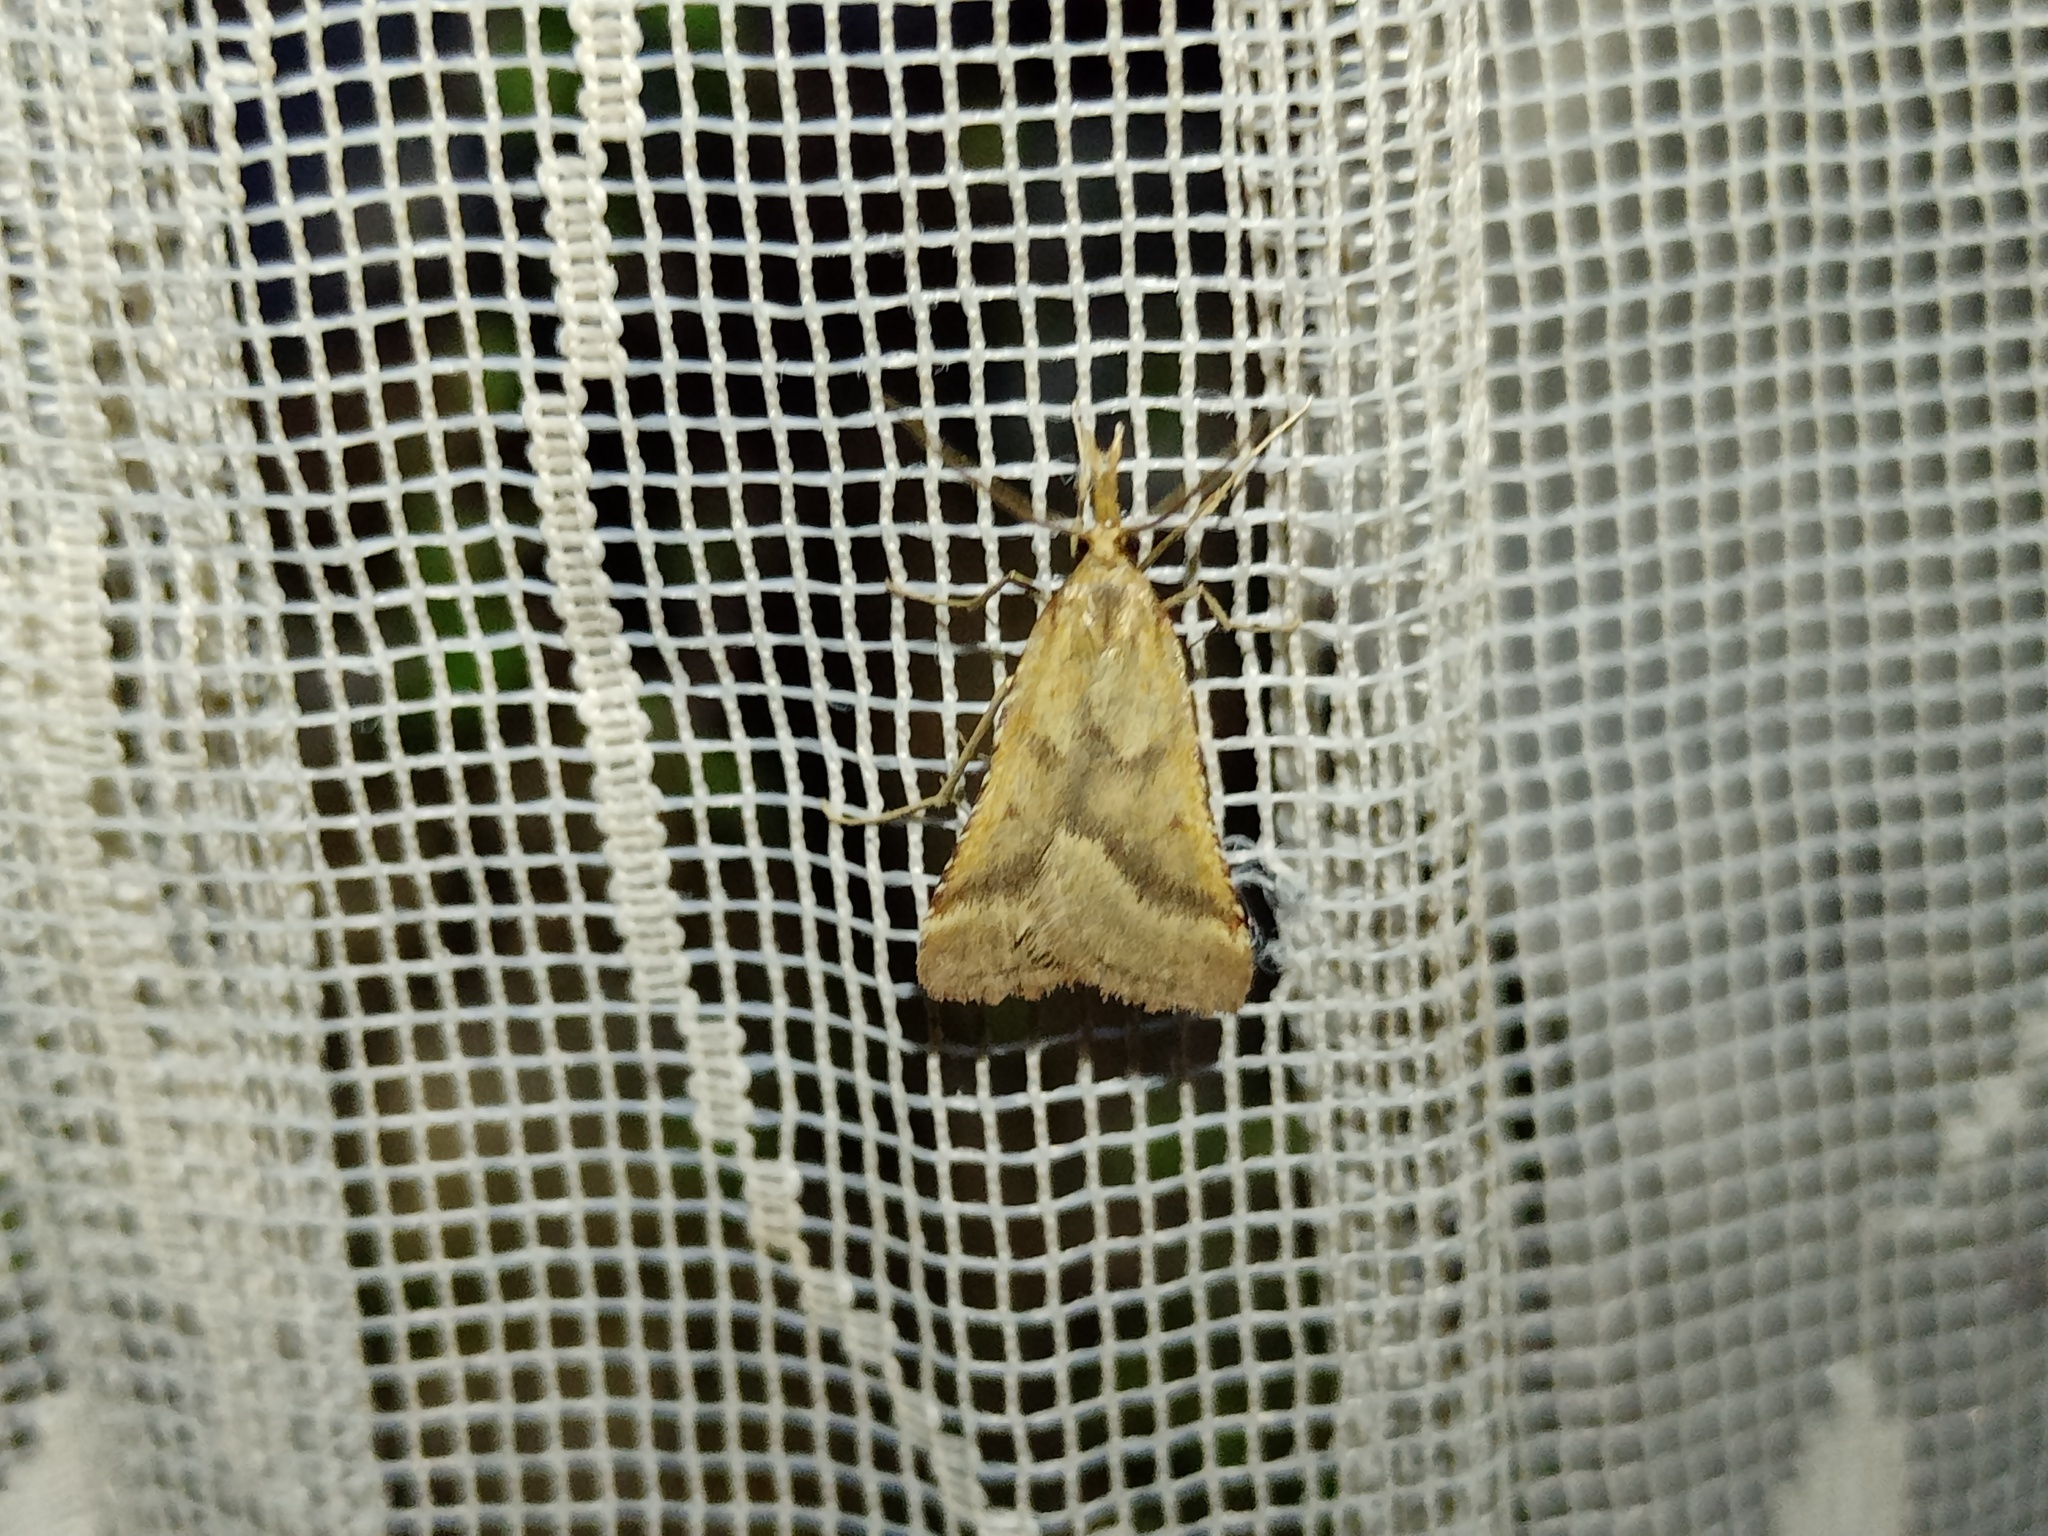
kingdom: Animalia
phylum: Arthropoda
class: Insecta
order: Lepidoptera
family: Pyralidae
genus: Synaphe
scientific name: Synaphe punctalis
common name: Long-legged tabby
